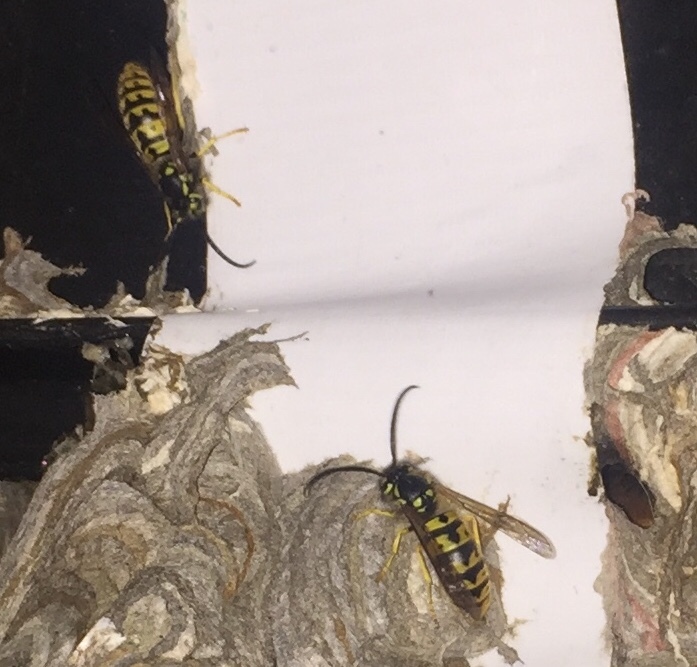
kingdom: Animalia
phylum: Arthropoda
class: Insecta
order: Hymenoptera
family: Vespidae
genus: Vespula
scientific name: Vespula germanica
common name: German wasp
